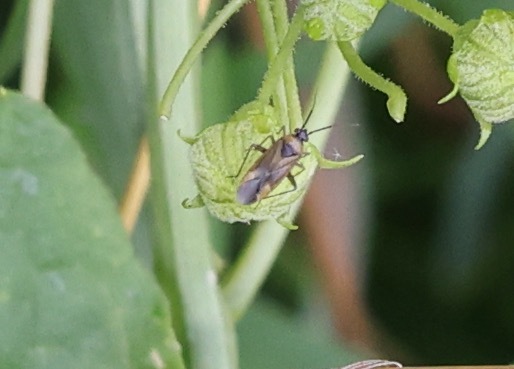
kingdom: Animalia
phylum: Arthropoda
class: Insecta
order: Hemiptera
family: Miridae
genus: Plagiognathus
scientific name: Plagiognathus arbustorum
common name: Plant bug
